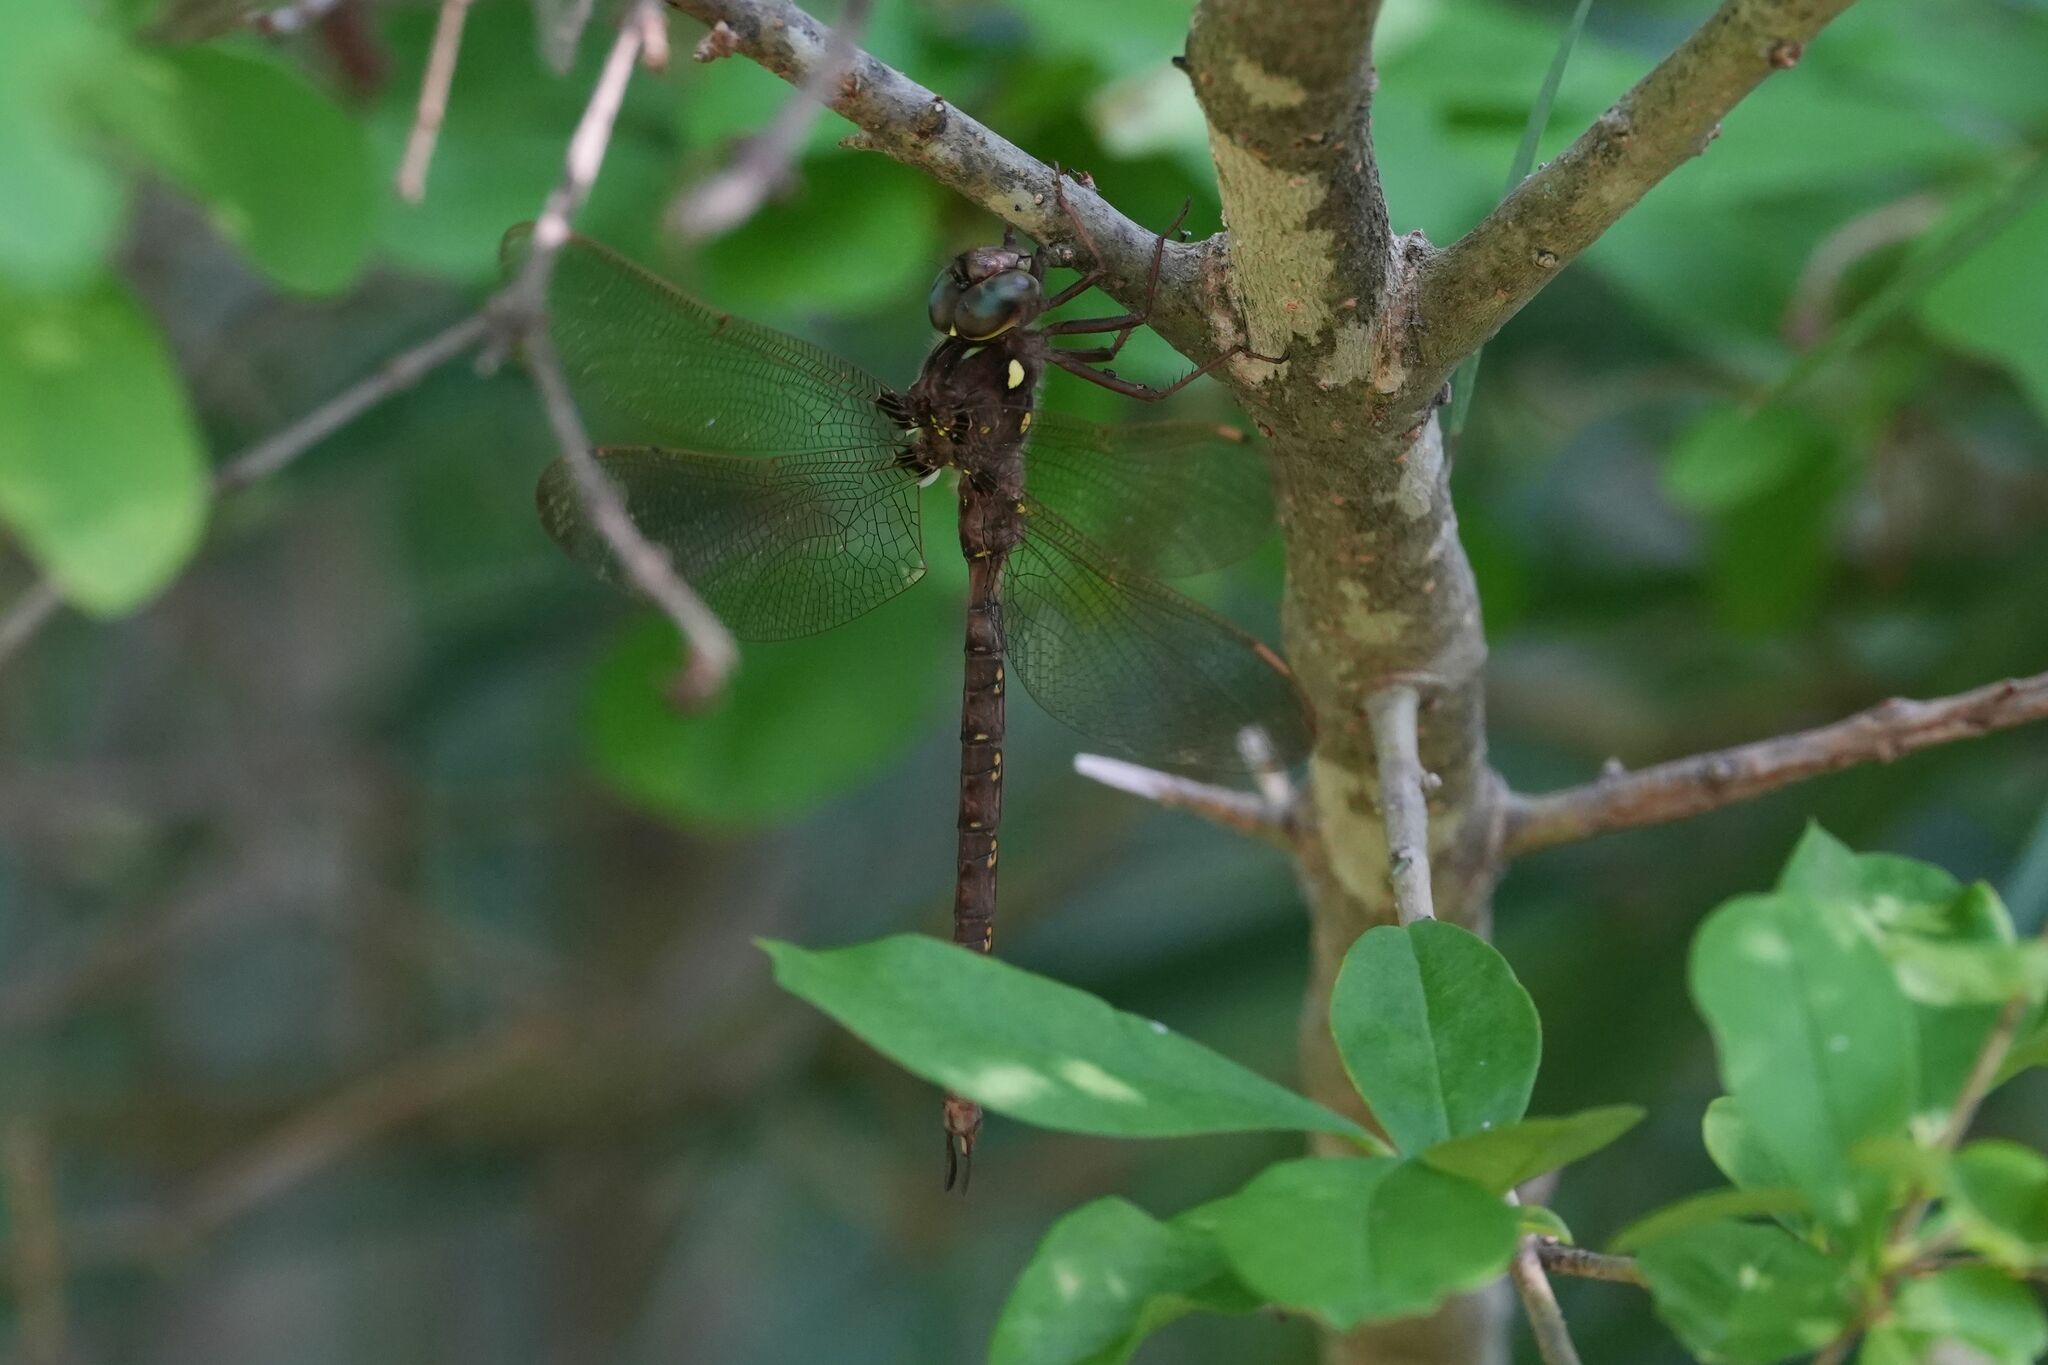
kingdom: Animalia
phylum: Arthropoda
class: Insecta
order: Odonata
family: Aeshnidae
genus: Boyeria
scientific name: Boyeria vinosa
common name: Fawn darner
